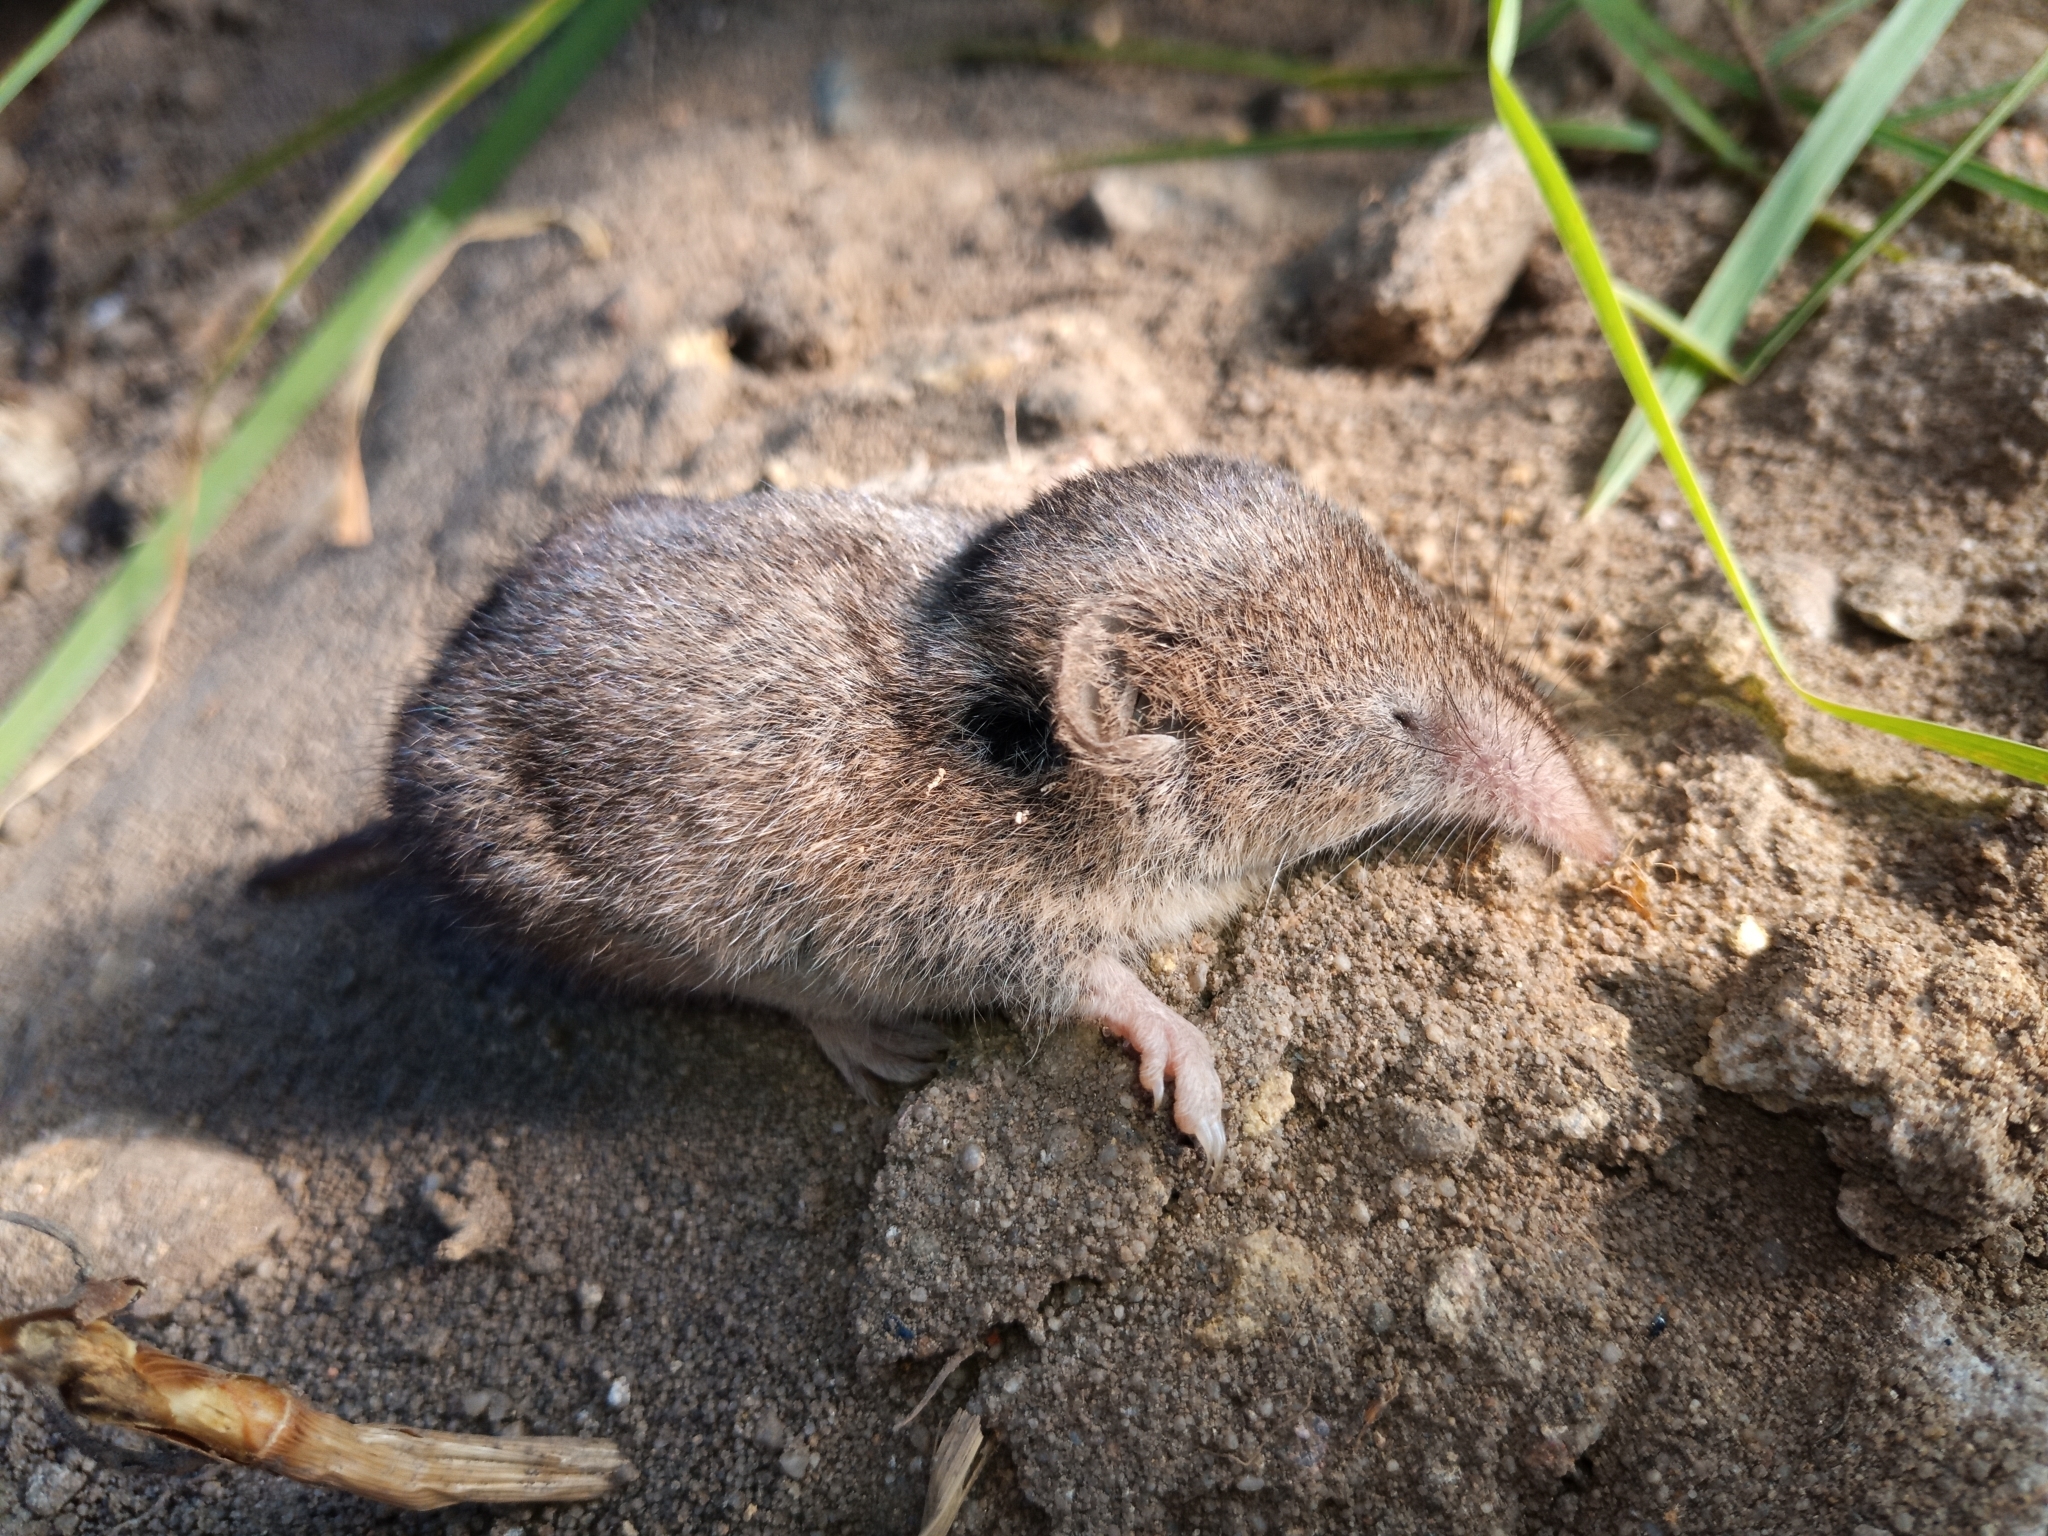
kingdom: Animalia
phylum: Chordata
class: Mammalia
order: Soricomorpha
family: Soricidae
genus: Myosorex
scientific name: Myosorex varius
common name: Forest shrew
